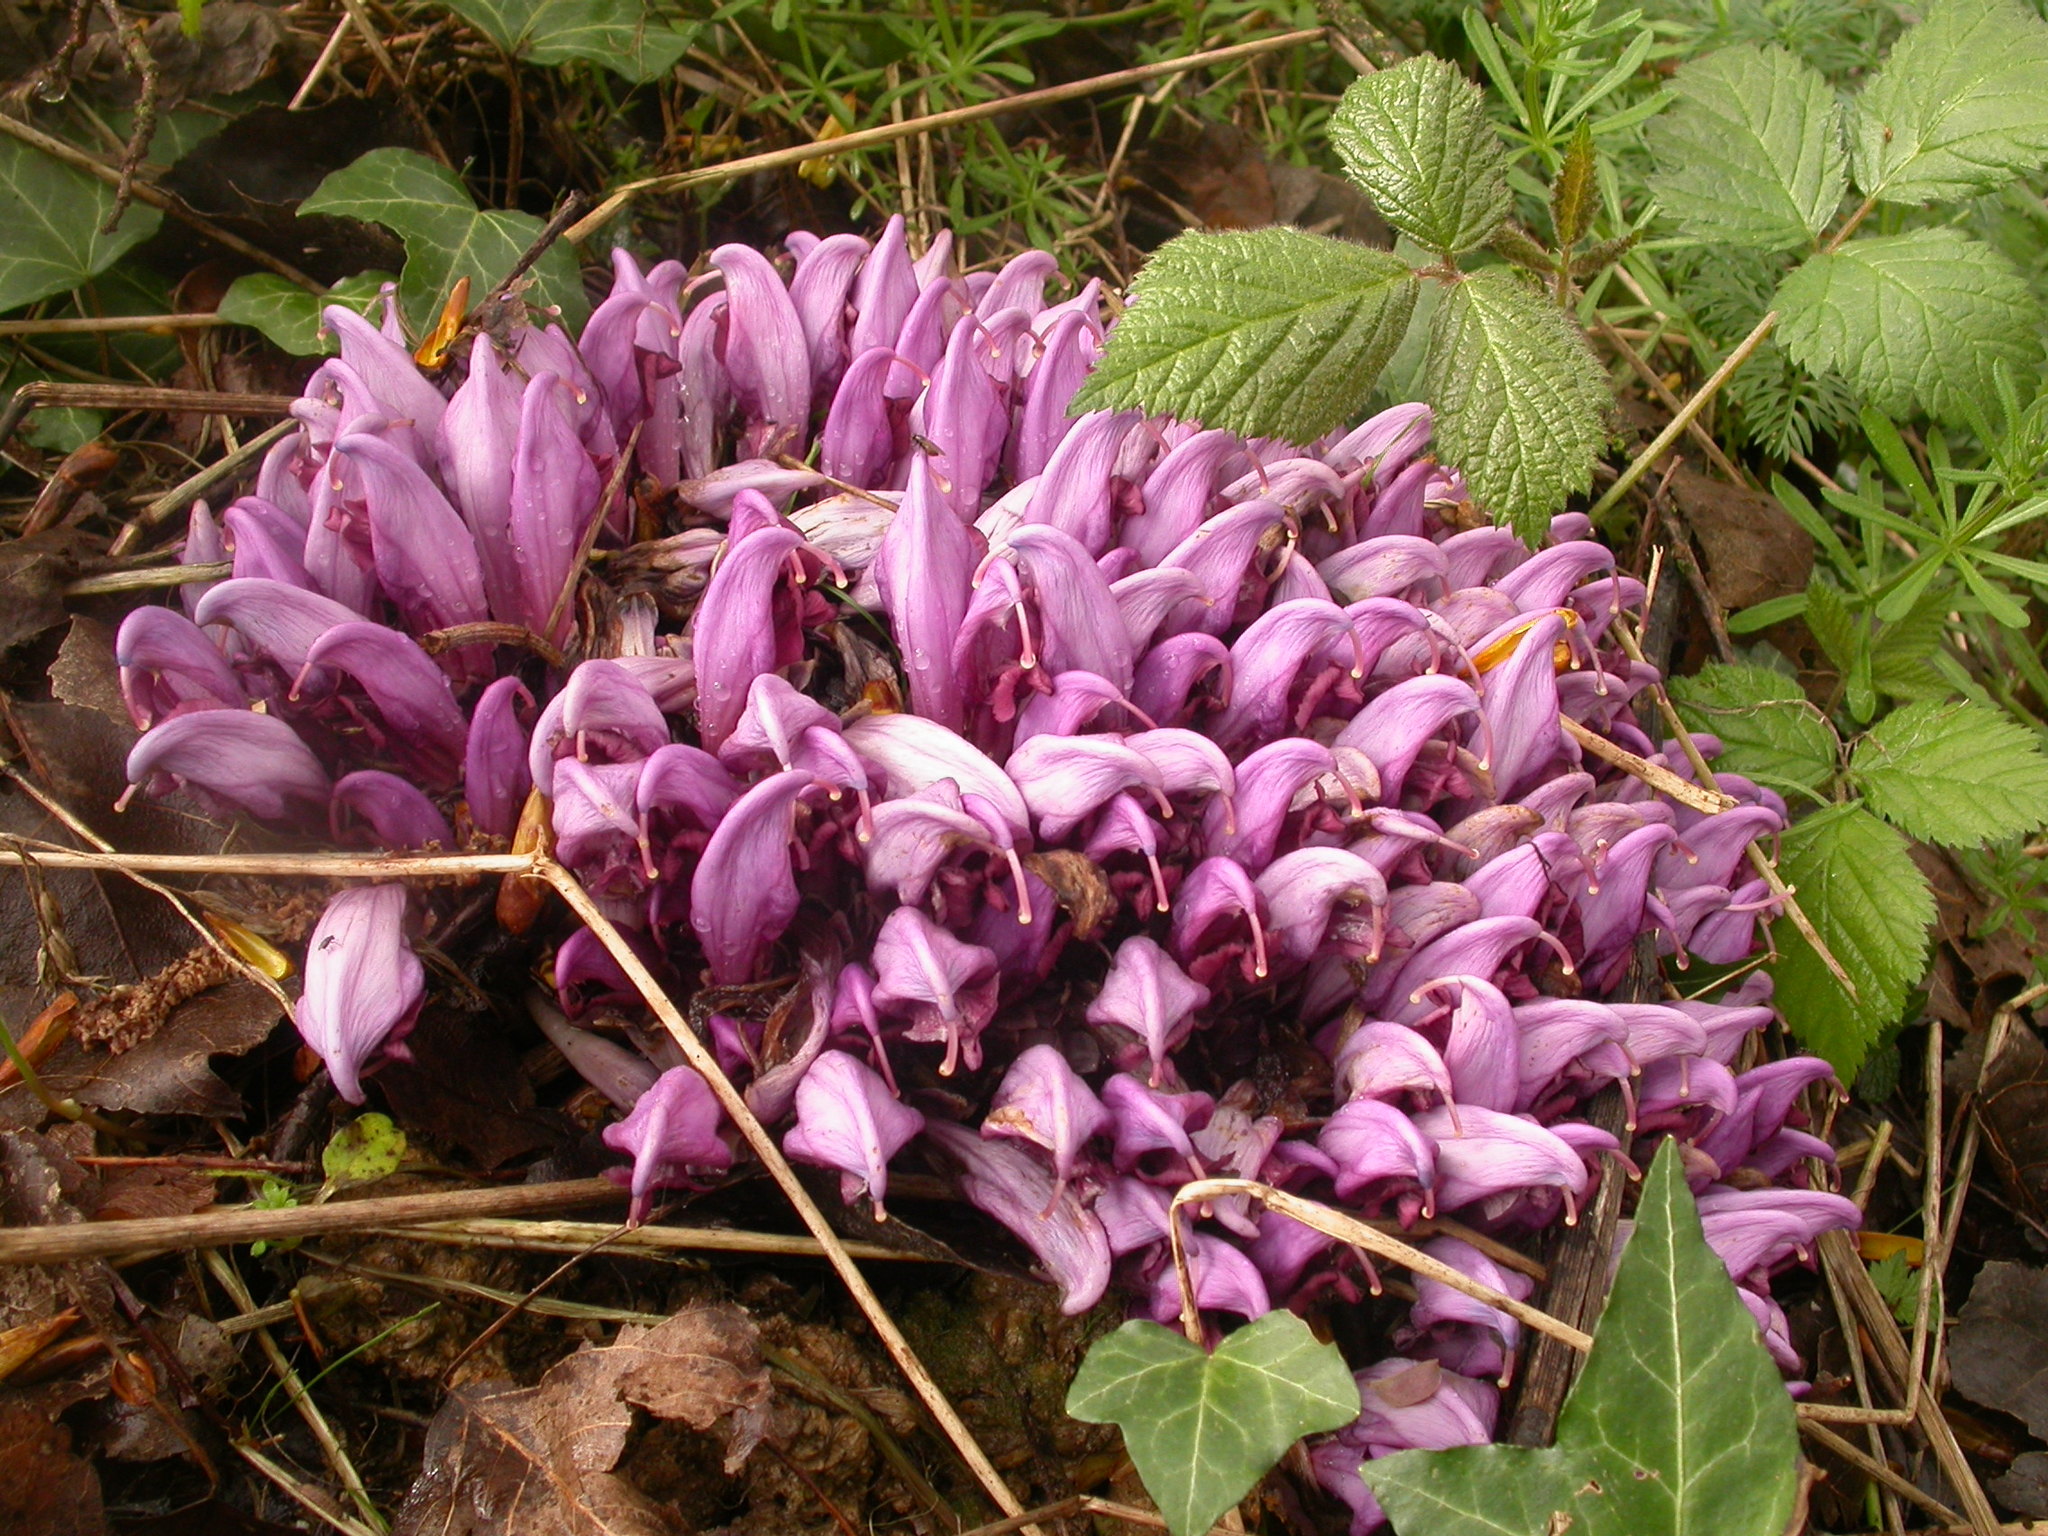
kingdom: Plantae
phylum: Tracheophyta
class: Magnoliopsida
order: Lamiales
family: Orobanchaceae
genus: Lathraea
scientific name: Lathraea clandestina
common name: Purple toothwort
